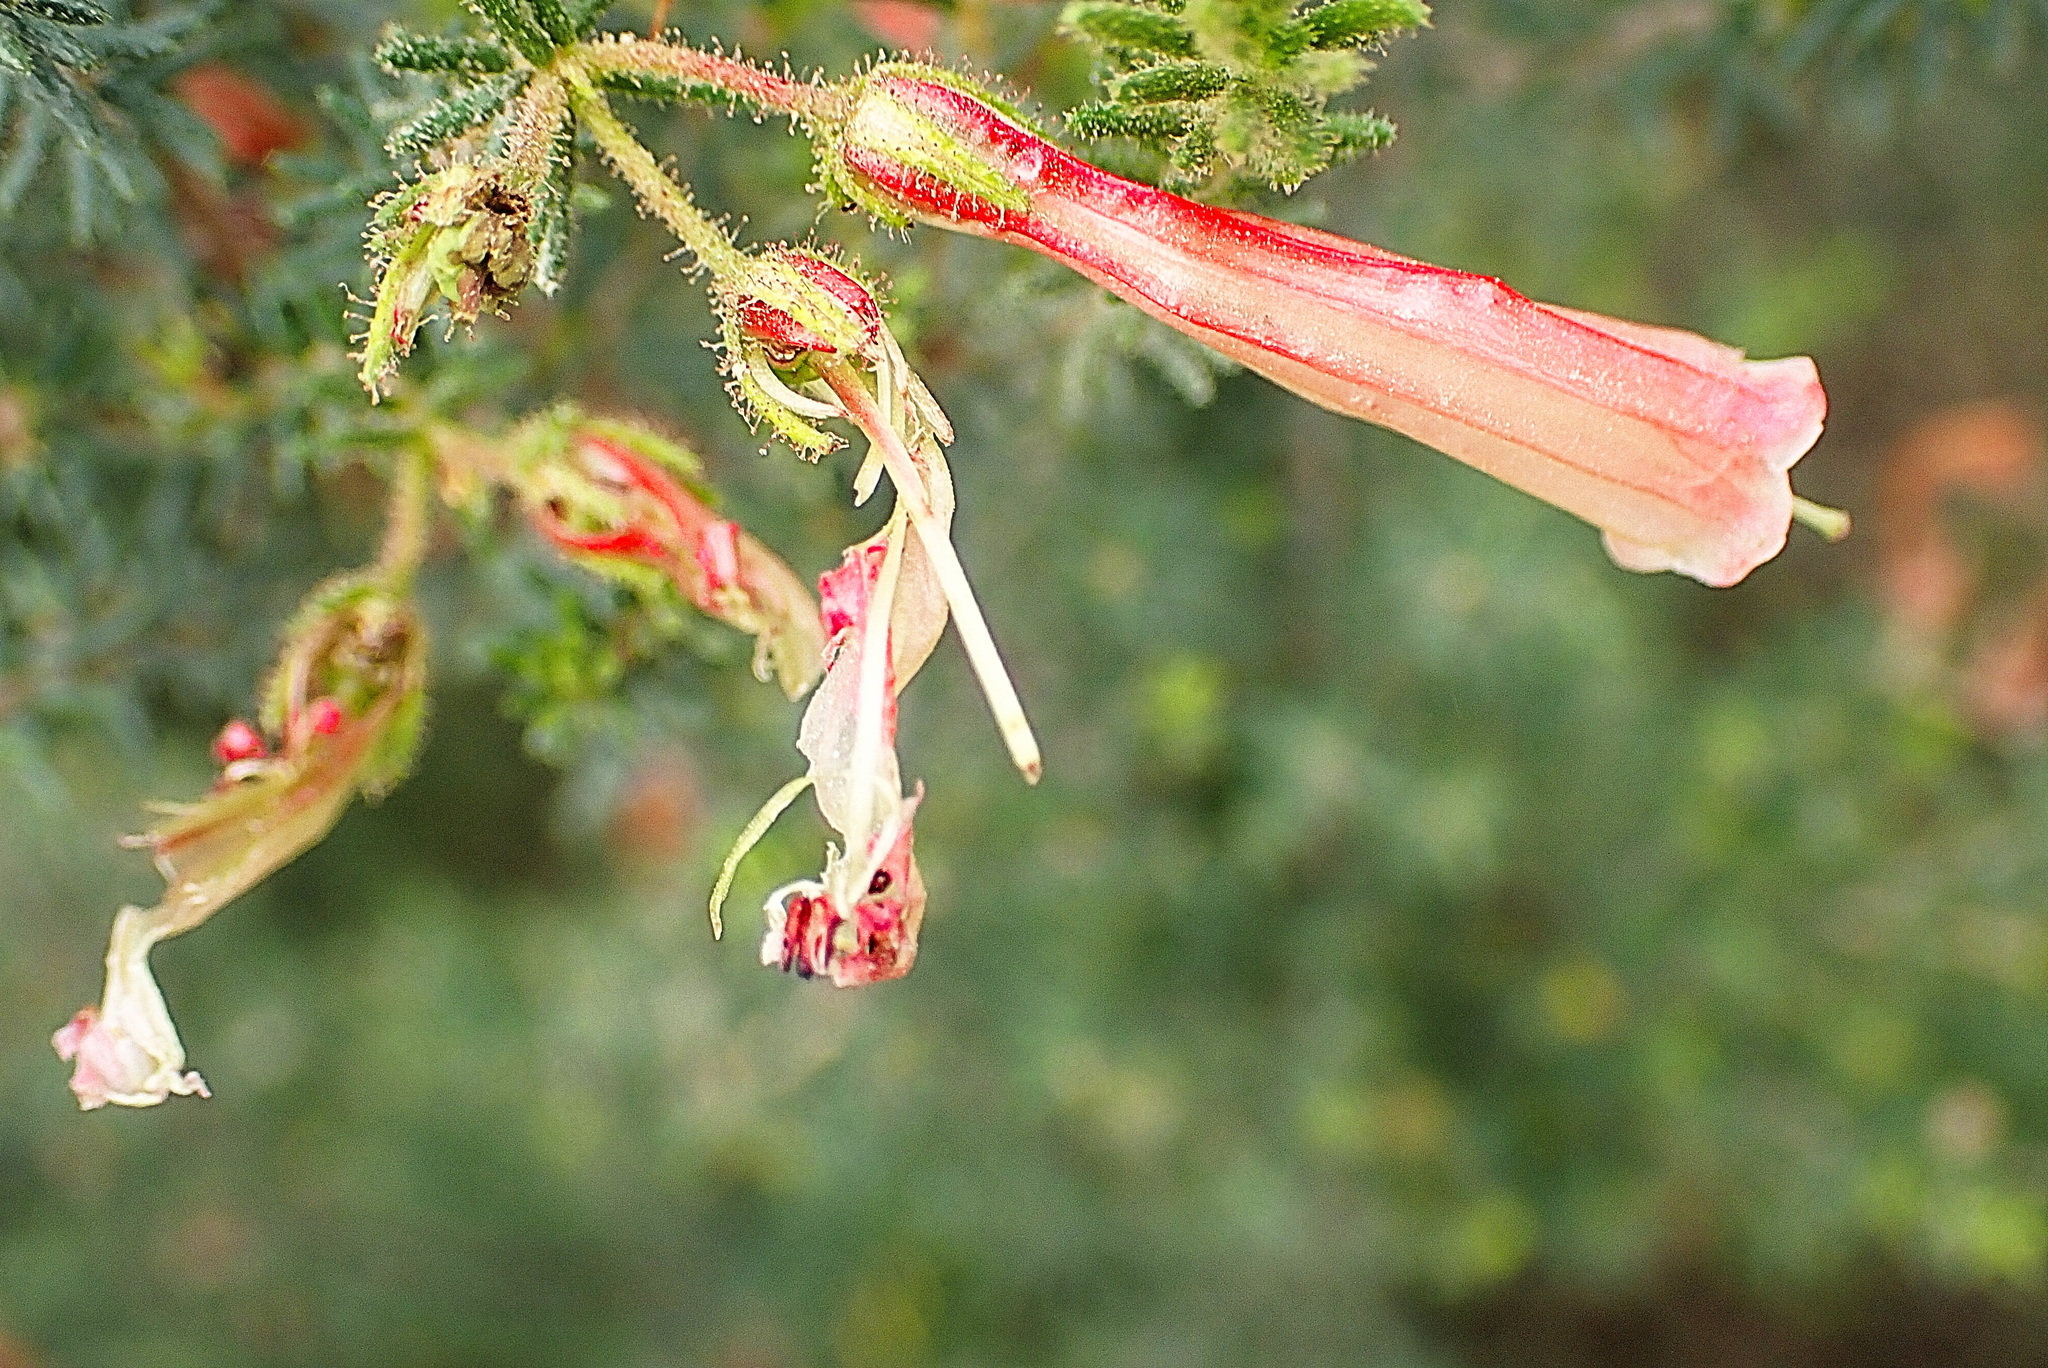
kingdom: Plantae
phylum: Tracheophyta
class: Magnoliopsida
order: Ericales
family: Ericaceae
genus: Erica
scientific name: Erica glandulosa
